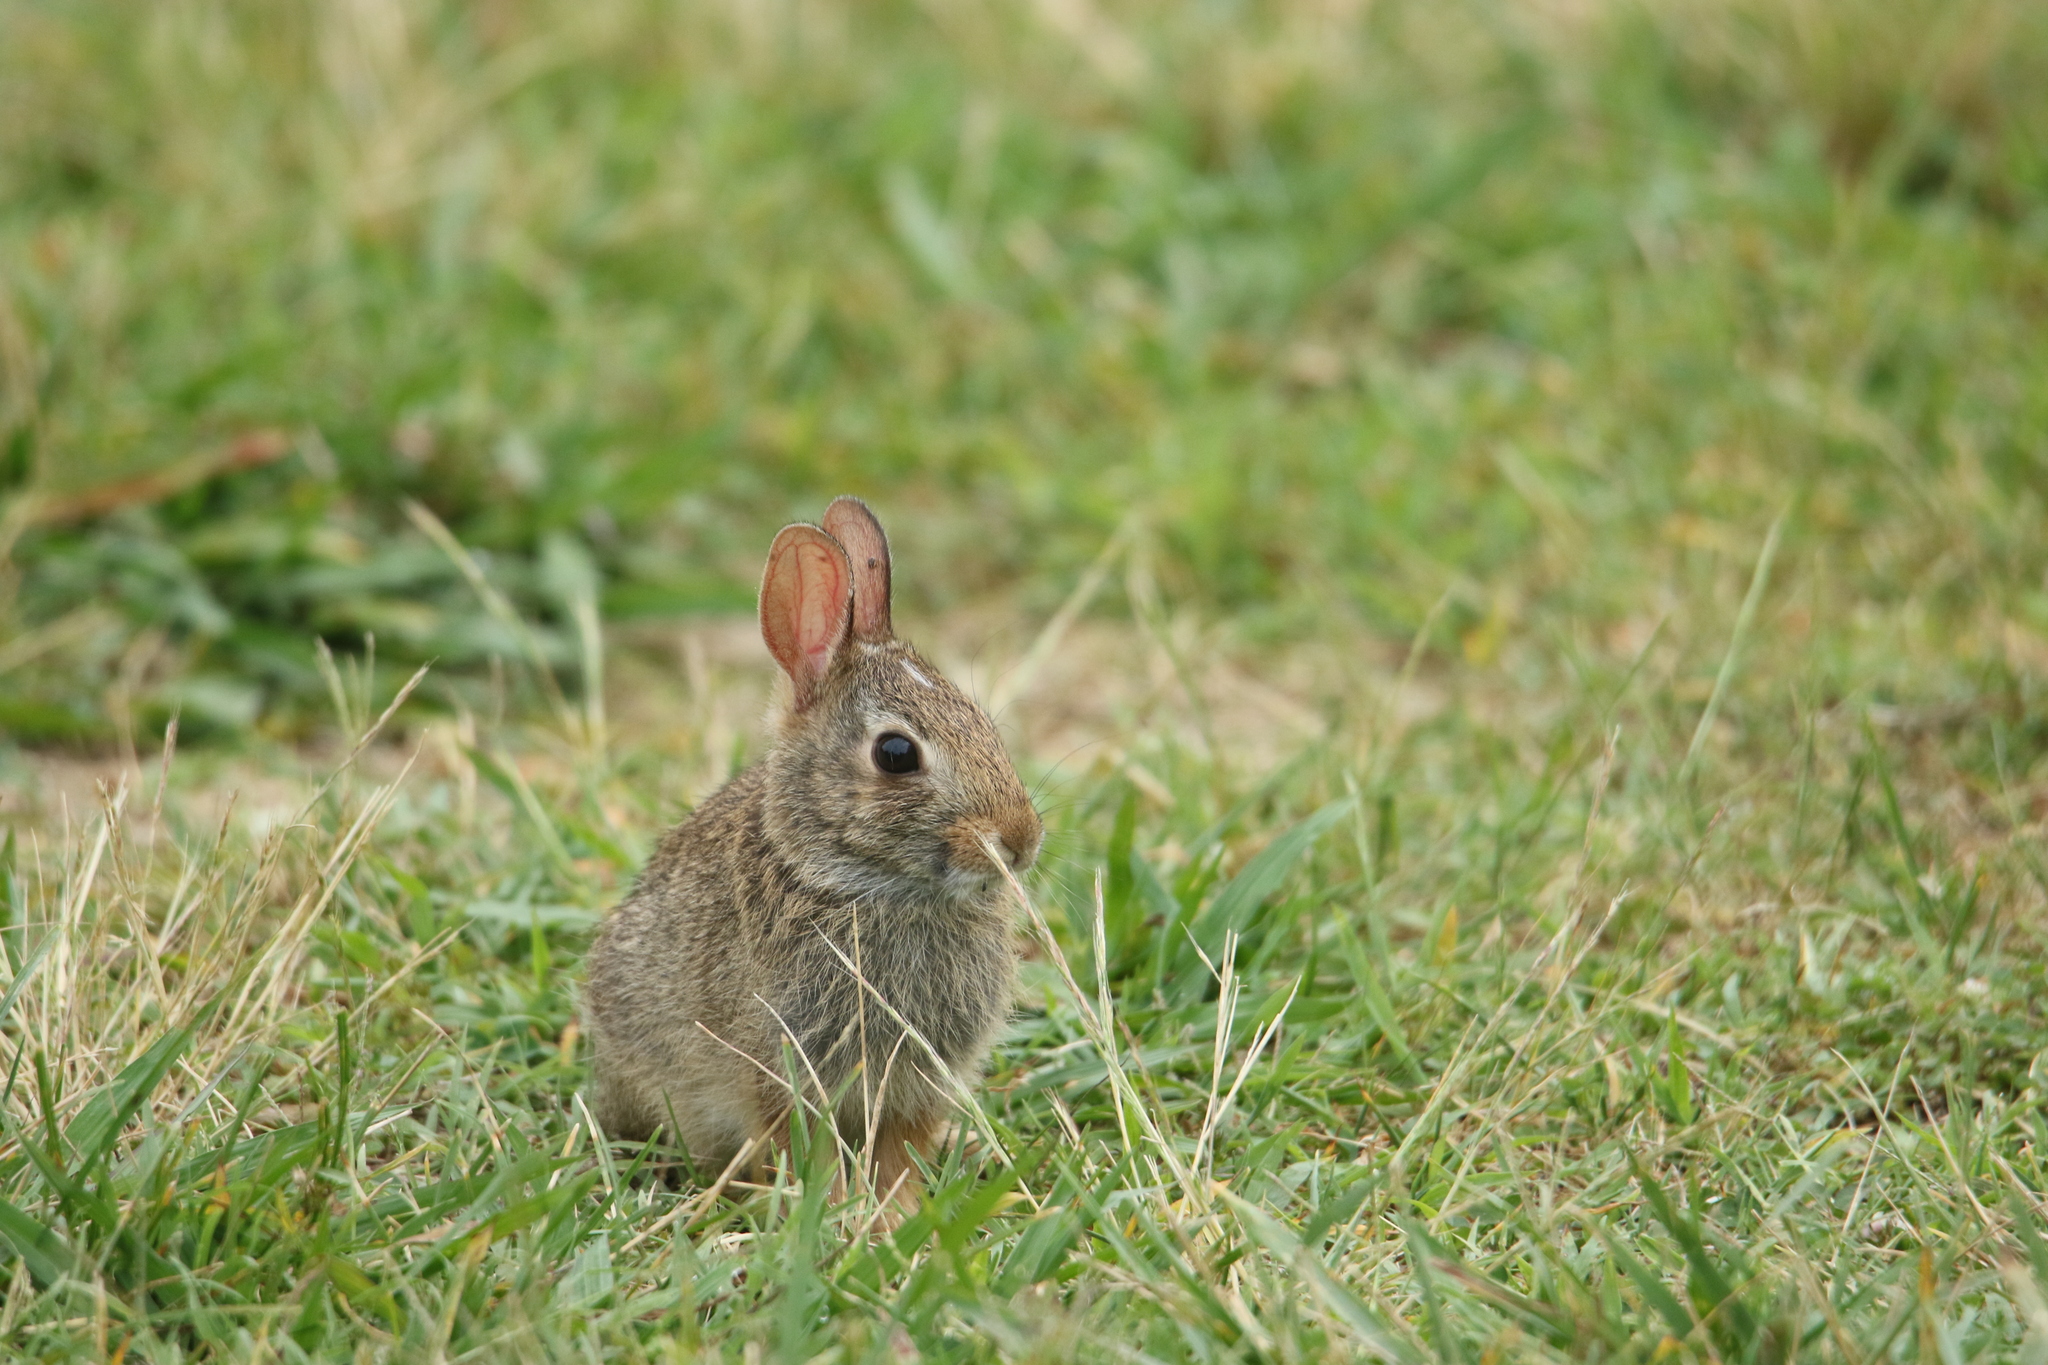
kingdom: Animalia
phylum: Chordata
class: Mammalia
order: Lagomorpha
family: Leporidae
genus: Sylvilagus
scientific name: Sylvilagus floridanus
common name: Eastern cottontail
